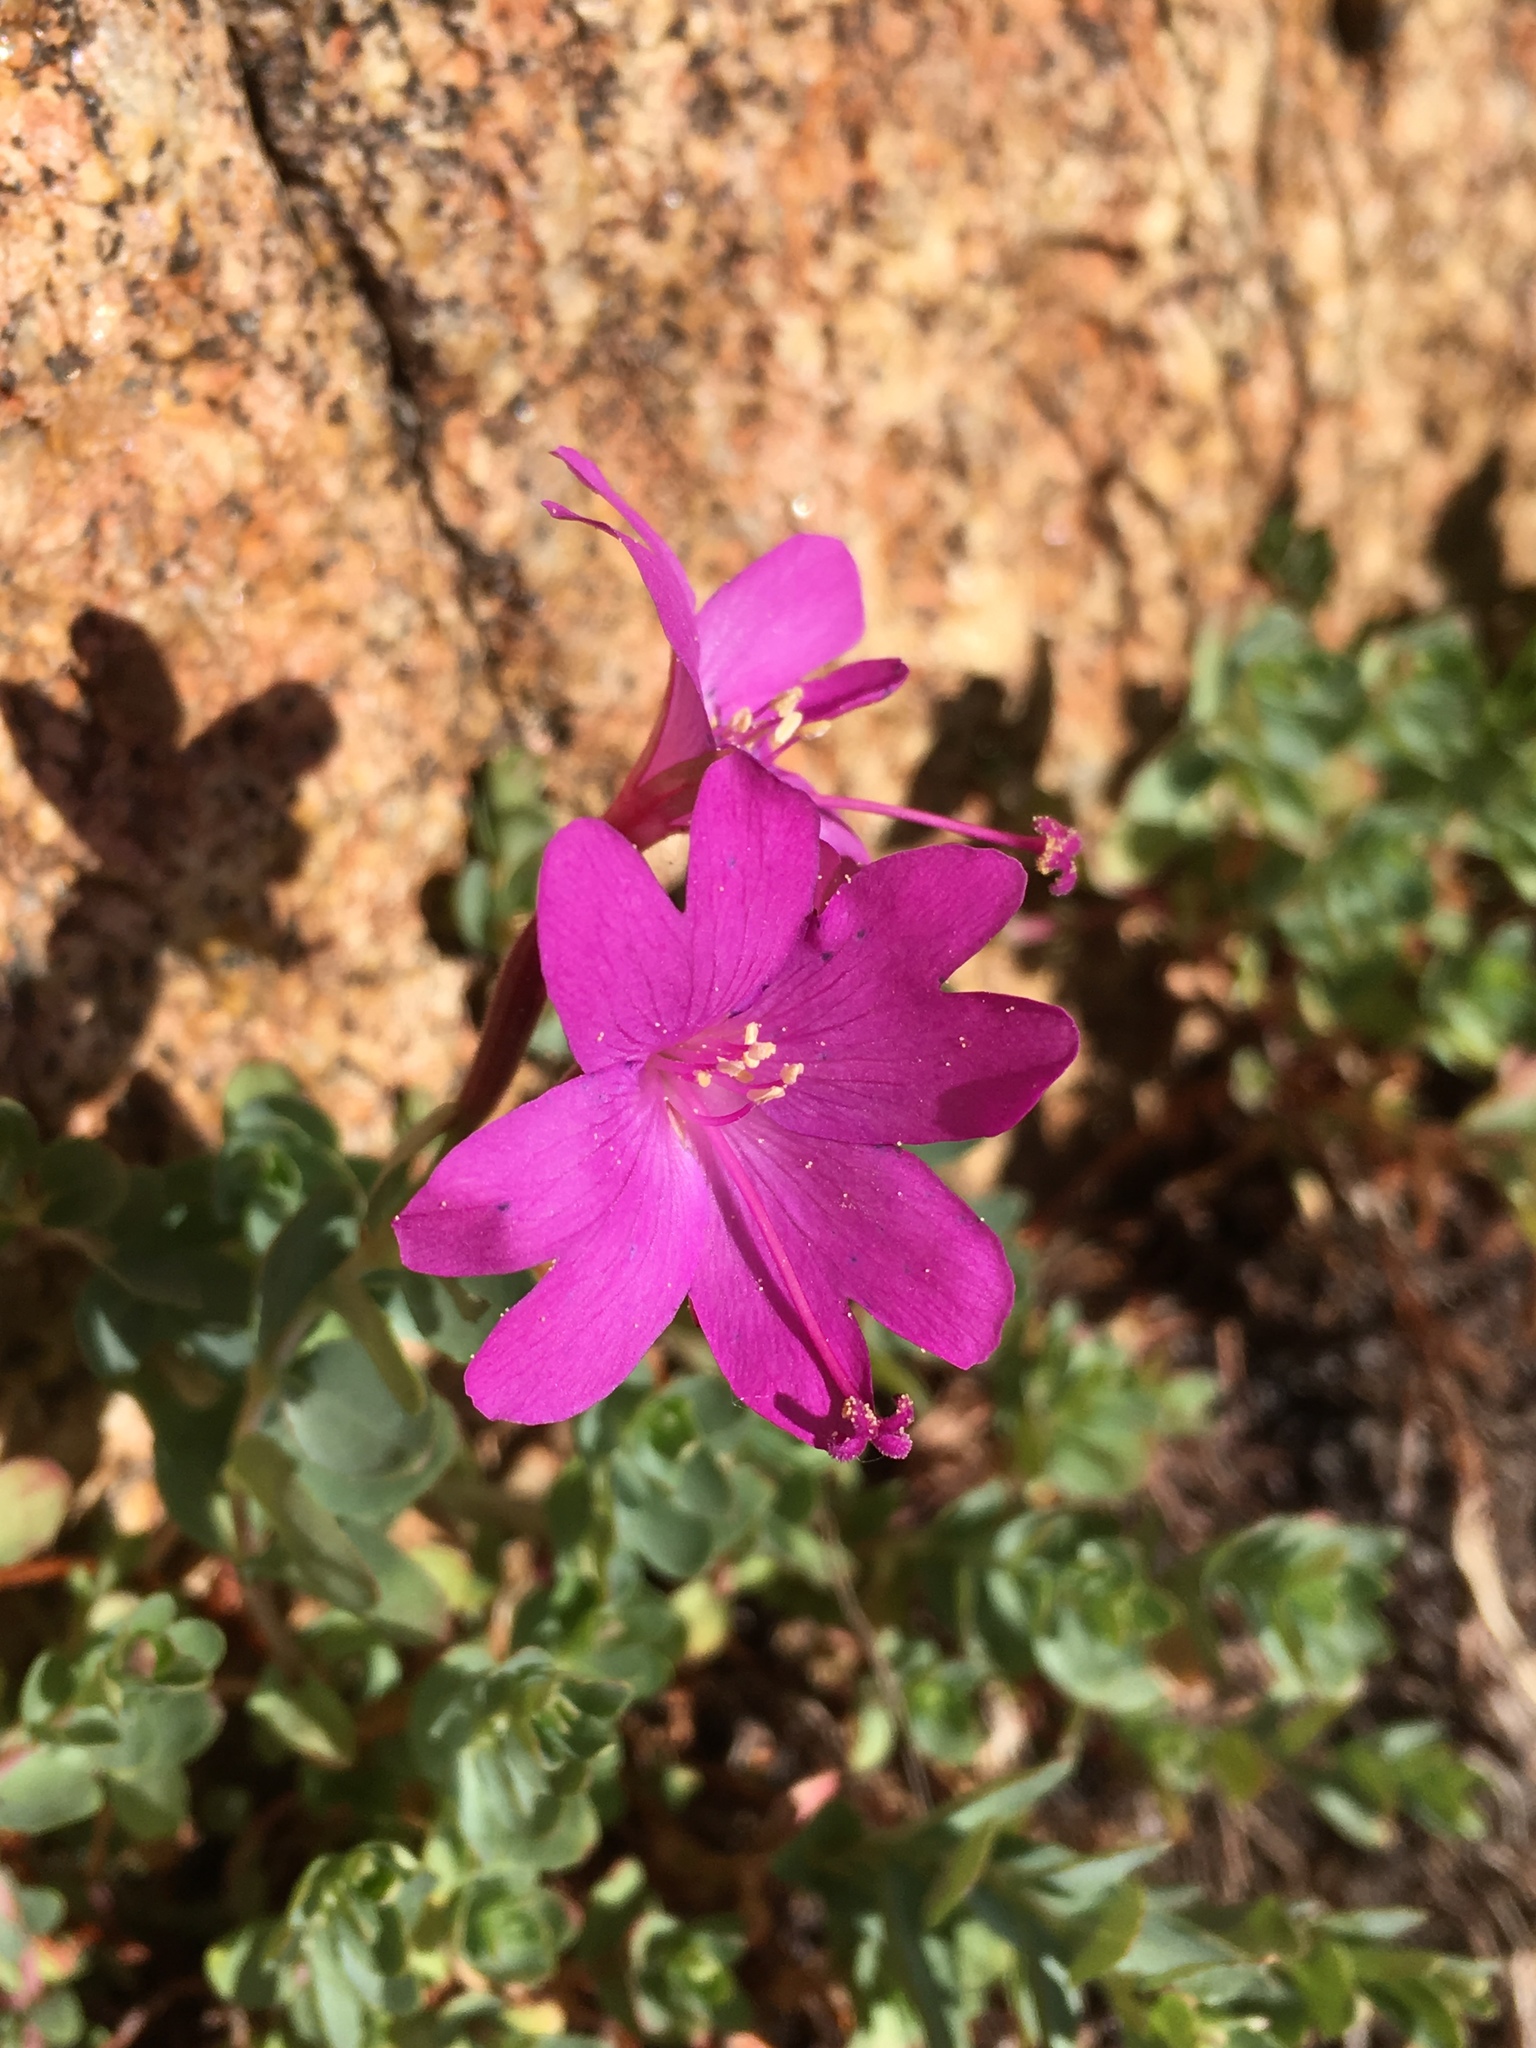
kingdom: Plantae
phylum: Tracheophyta
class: Magnoliopsida
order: Myrtales
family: Onagraceae
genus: Epilobium
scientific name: Epilobium obcordatum
